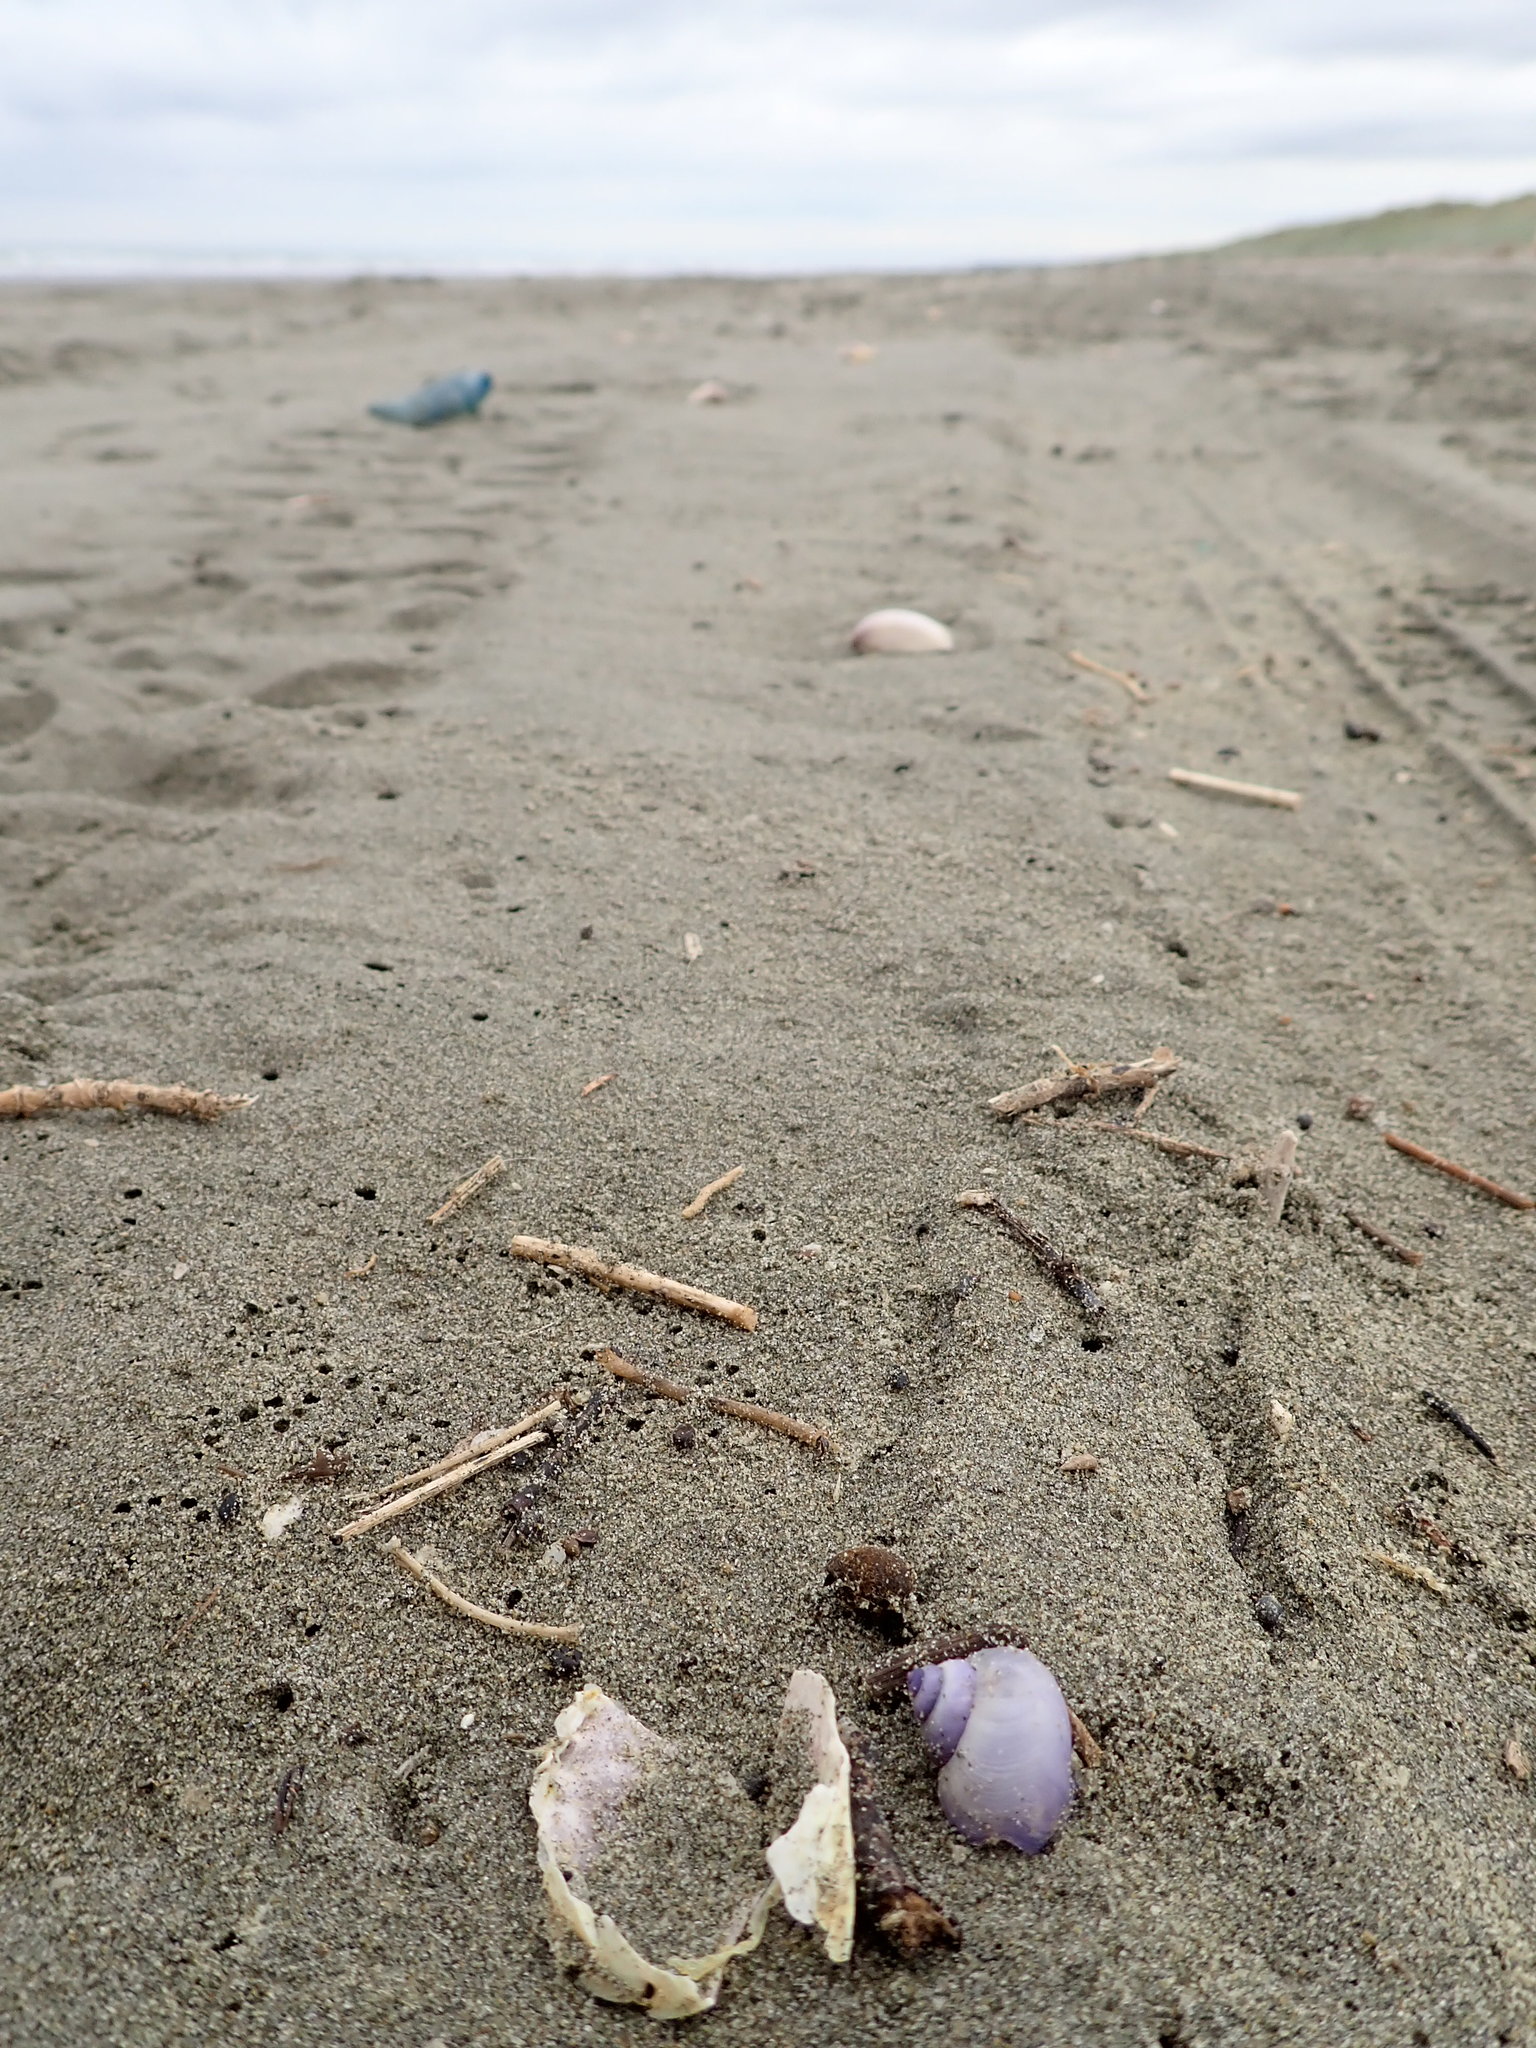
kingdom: Animalia
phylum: Mollusca
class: Gastropoda
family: Epitoniidae
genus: Janthina
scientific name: Janthina exigua
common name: Dwarf janthina
